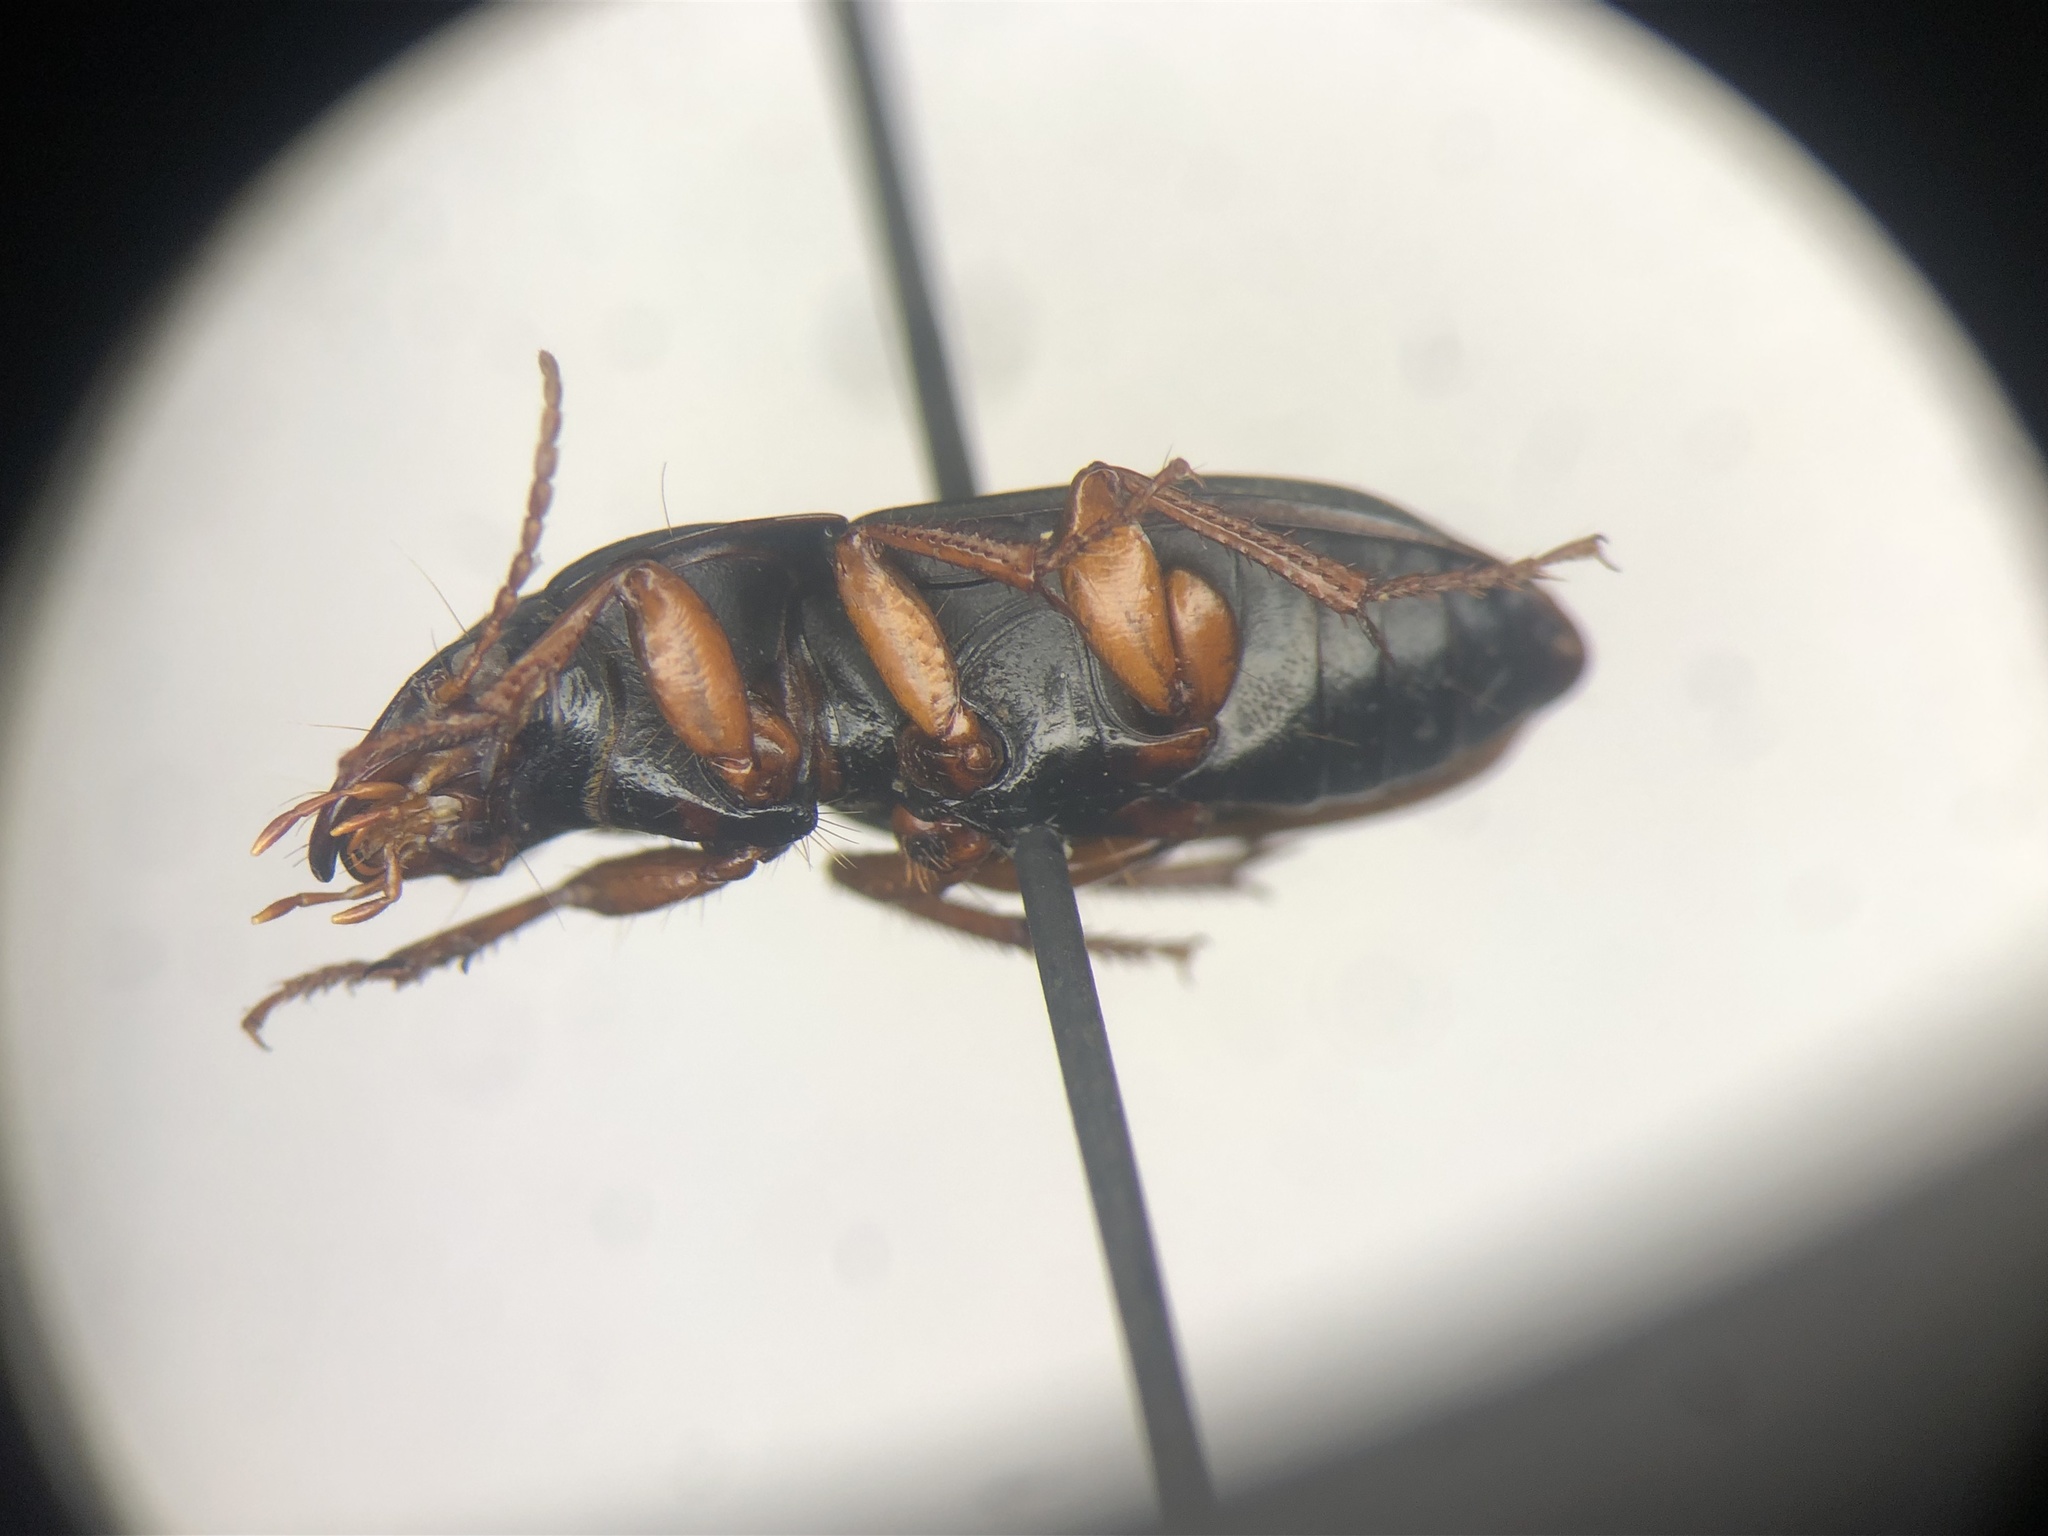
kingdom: Animalia
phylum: Arthropoda
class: Insecta
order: Coleoptera
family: Carabidae
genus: Harpalus
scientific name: Harpalus indigens
